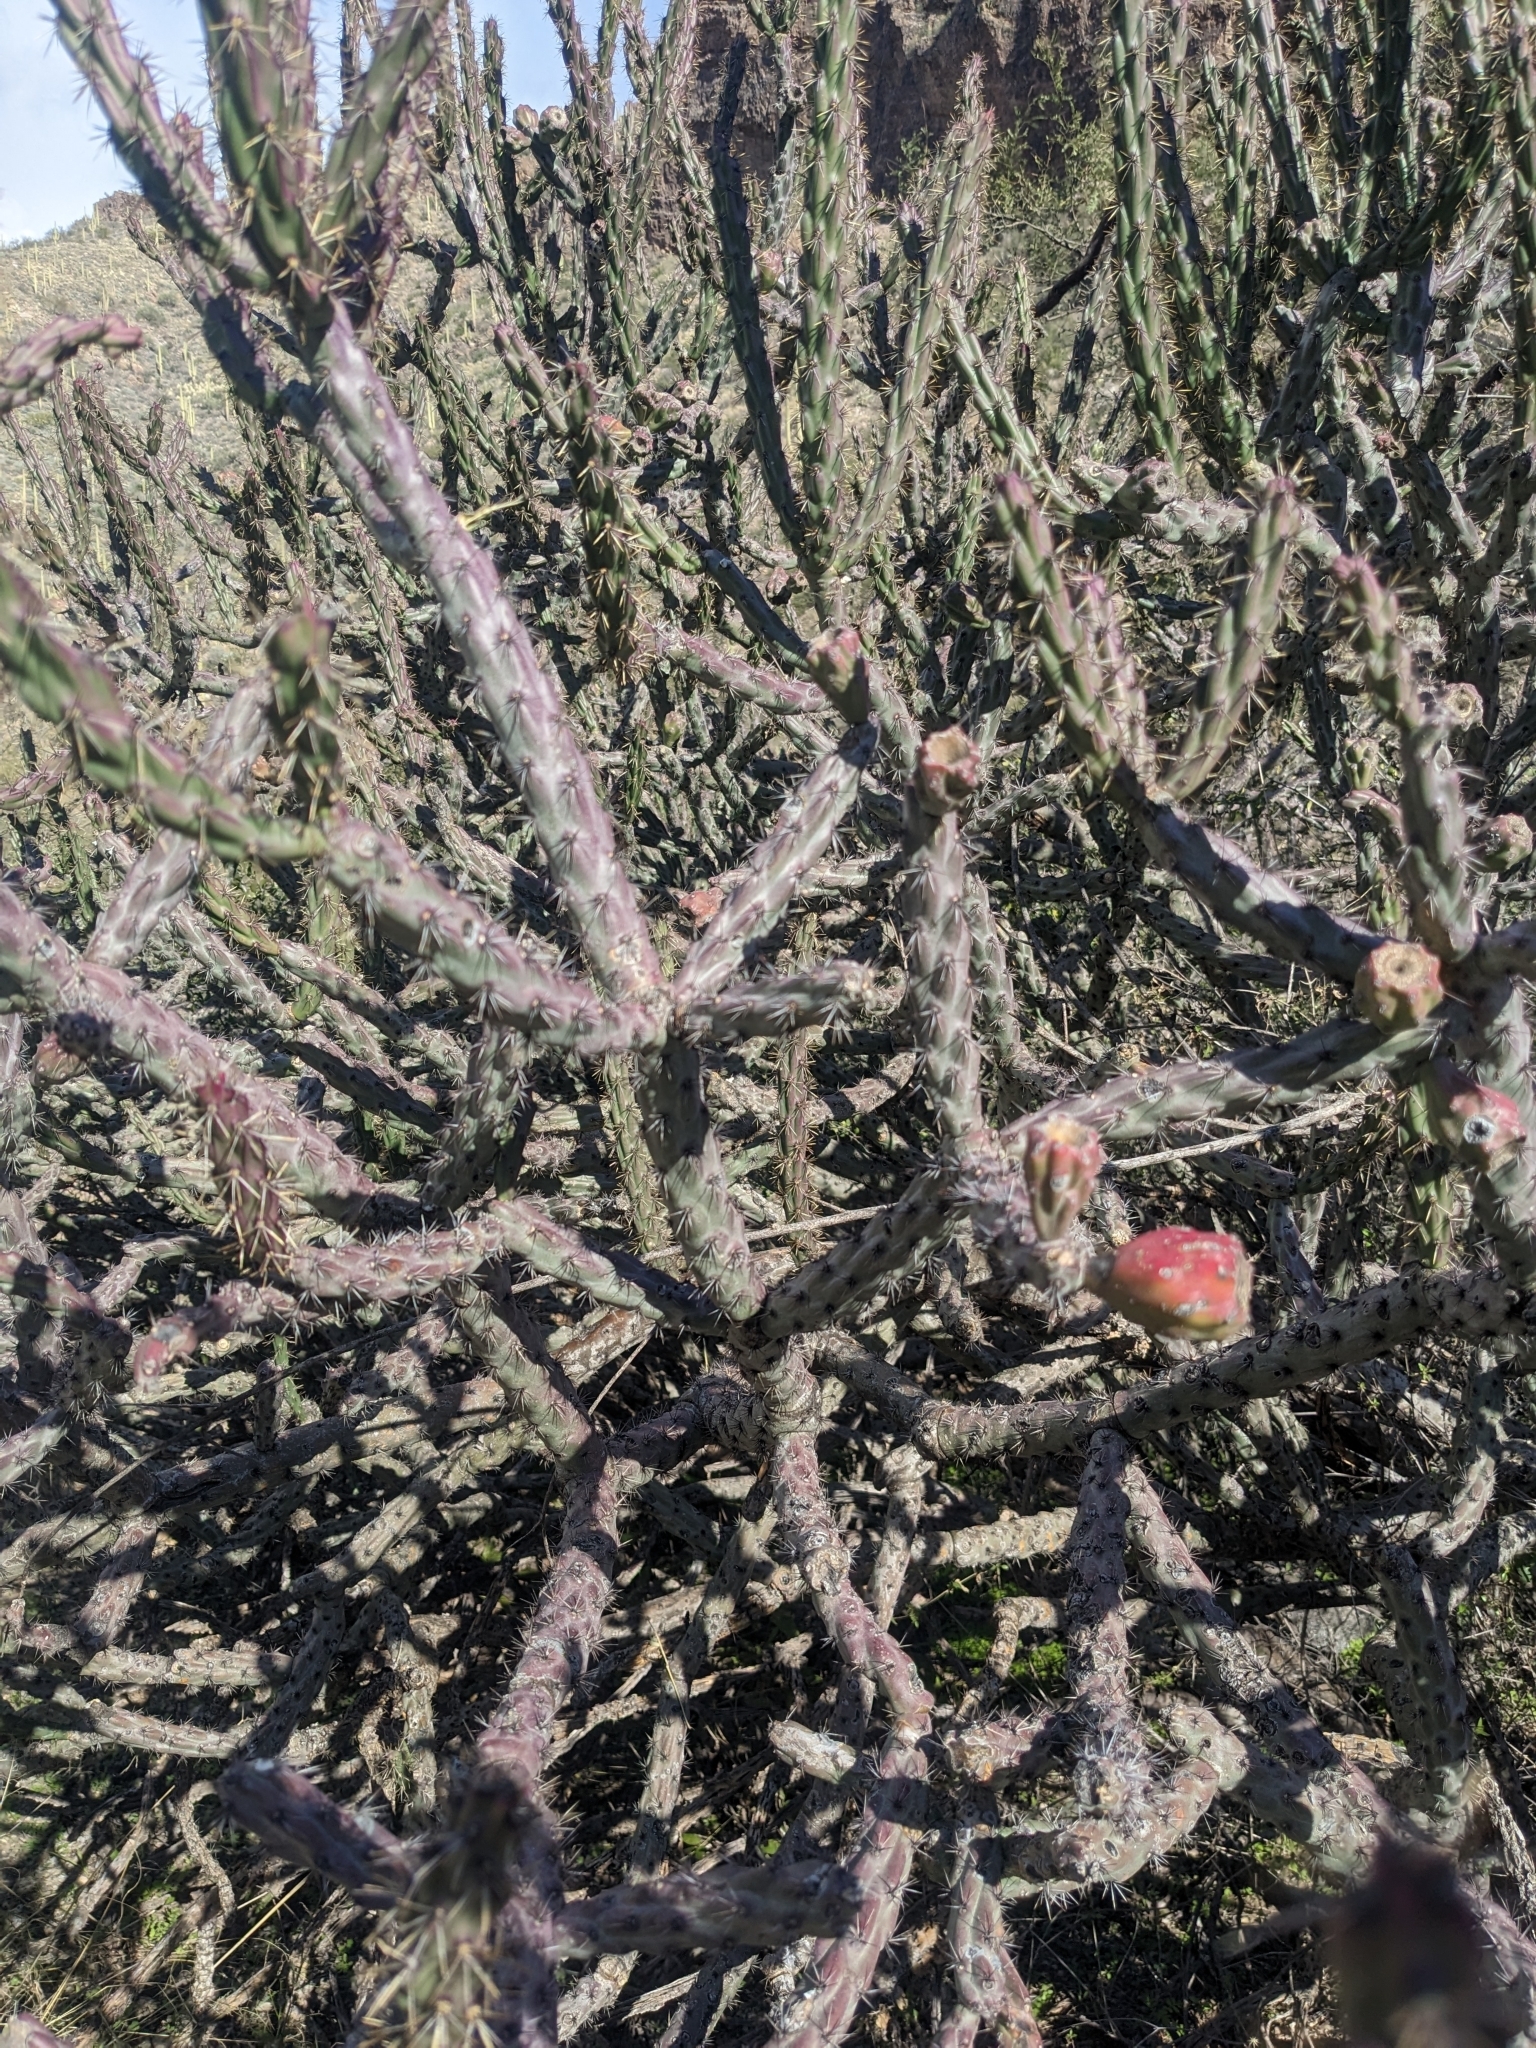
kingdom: Plantae
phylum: Tracheophyta
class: Magnoliopsida
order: Caryophyllales
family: Cactaceae
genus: Cylindropuntia
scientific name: Cylindropuntia thurberi
